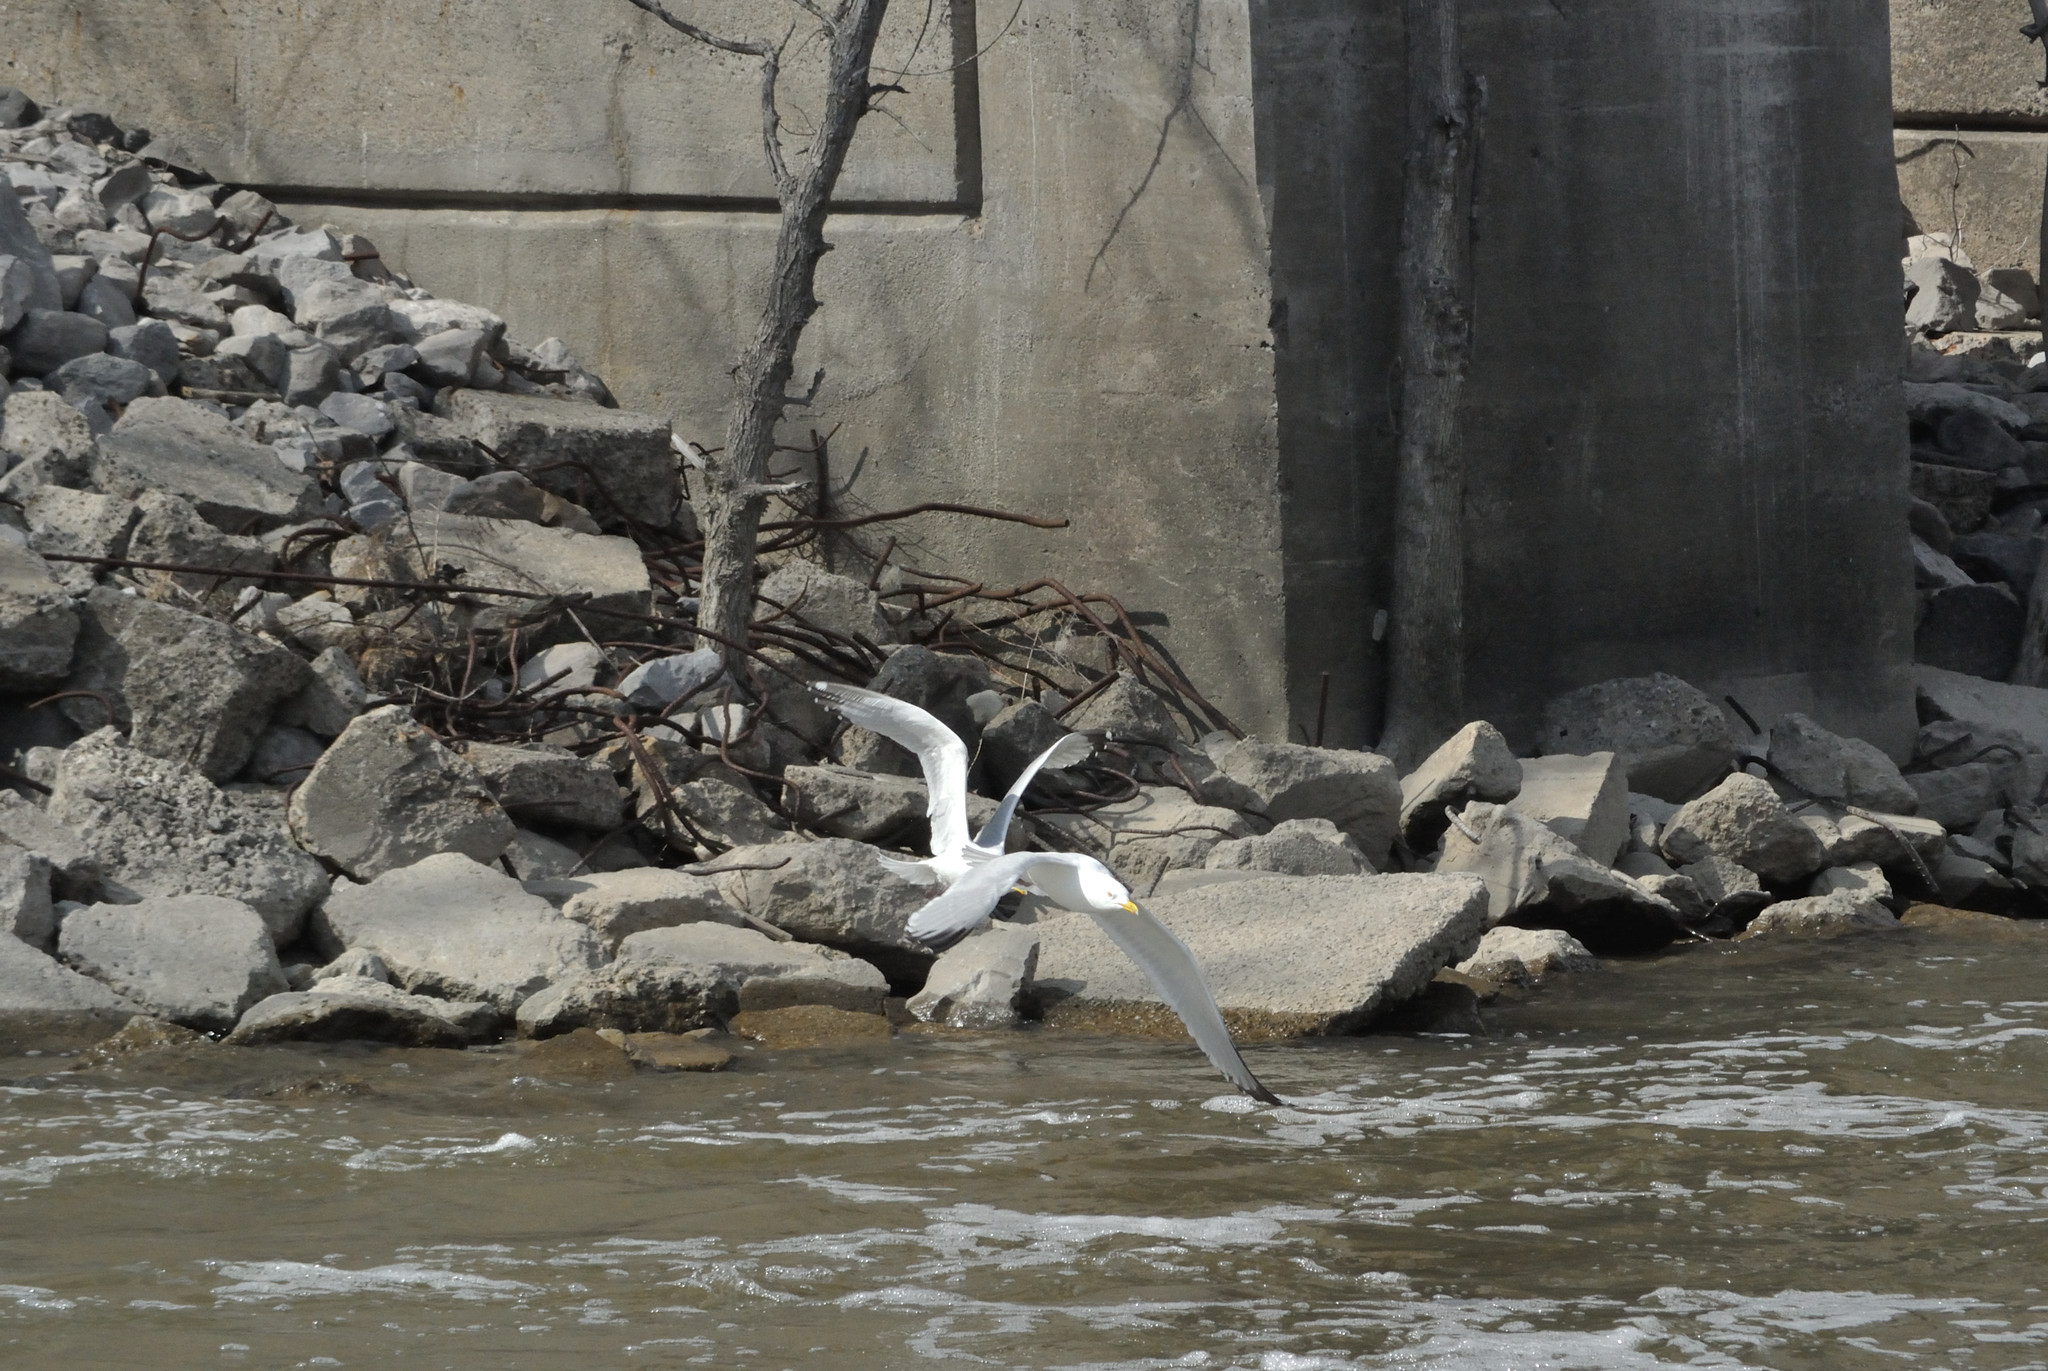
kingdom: Animalia
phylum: Chordata
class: Aves
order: Charadriiformes
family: Laridae
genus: Larus
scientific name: Larus argentatus
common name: Herring gull
